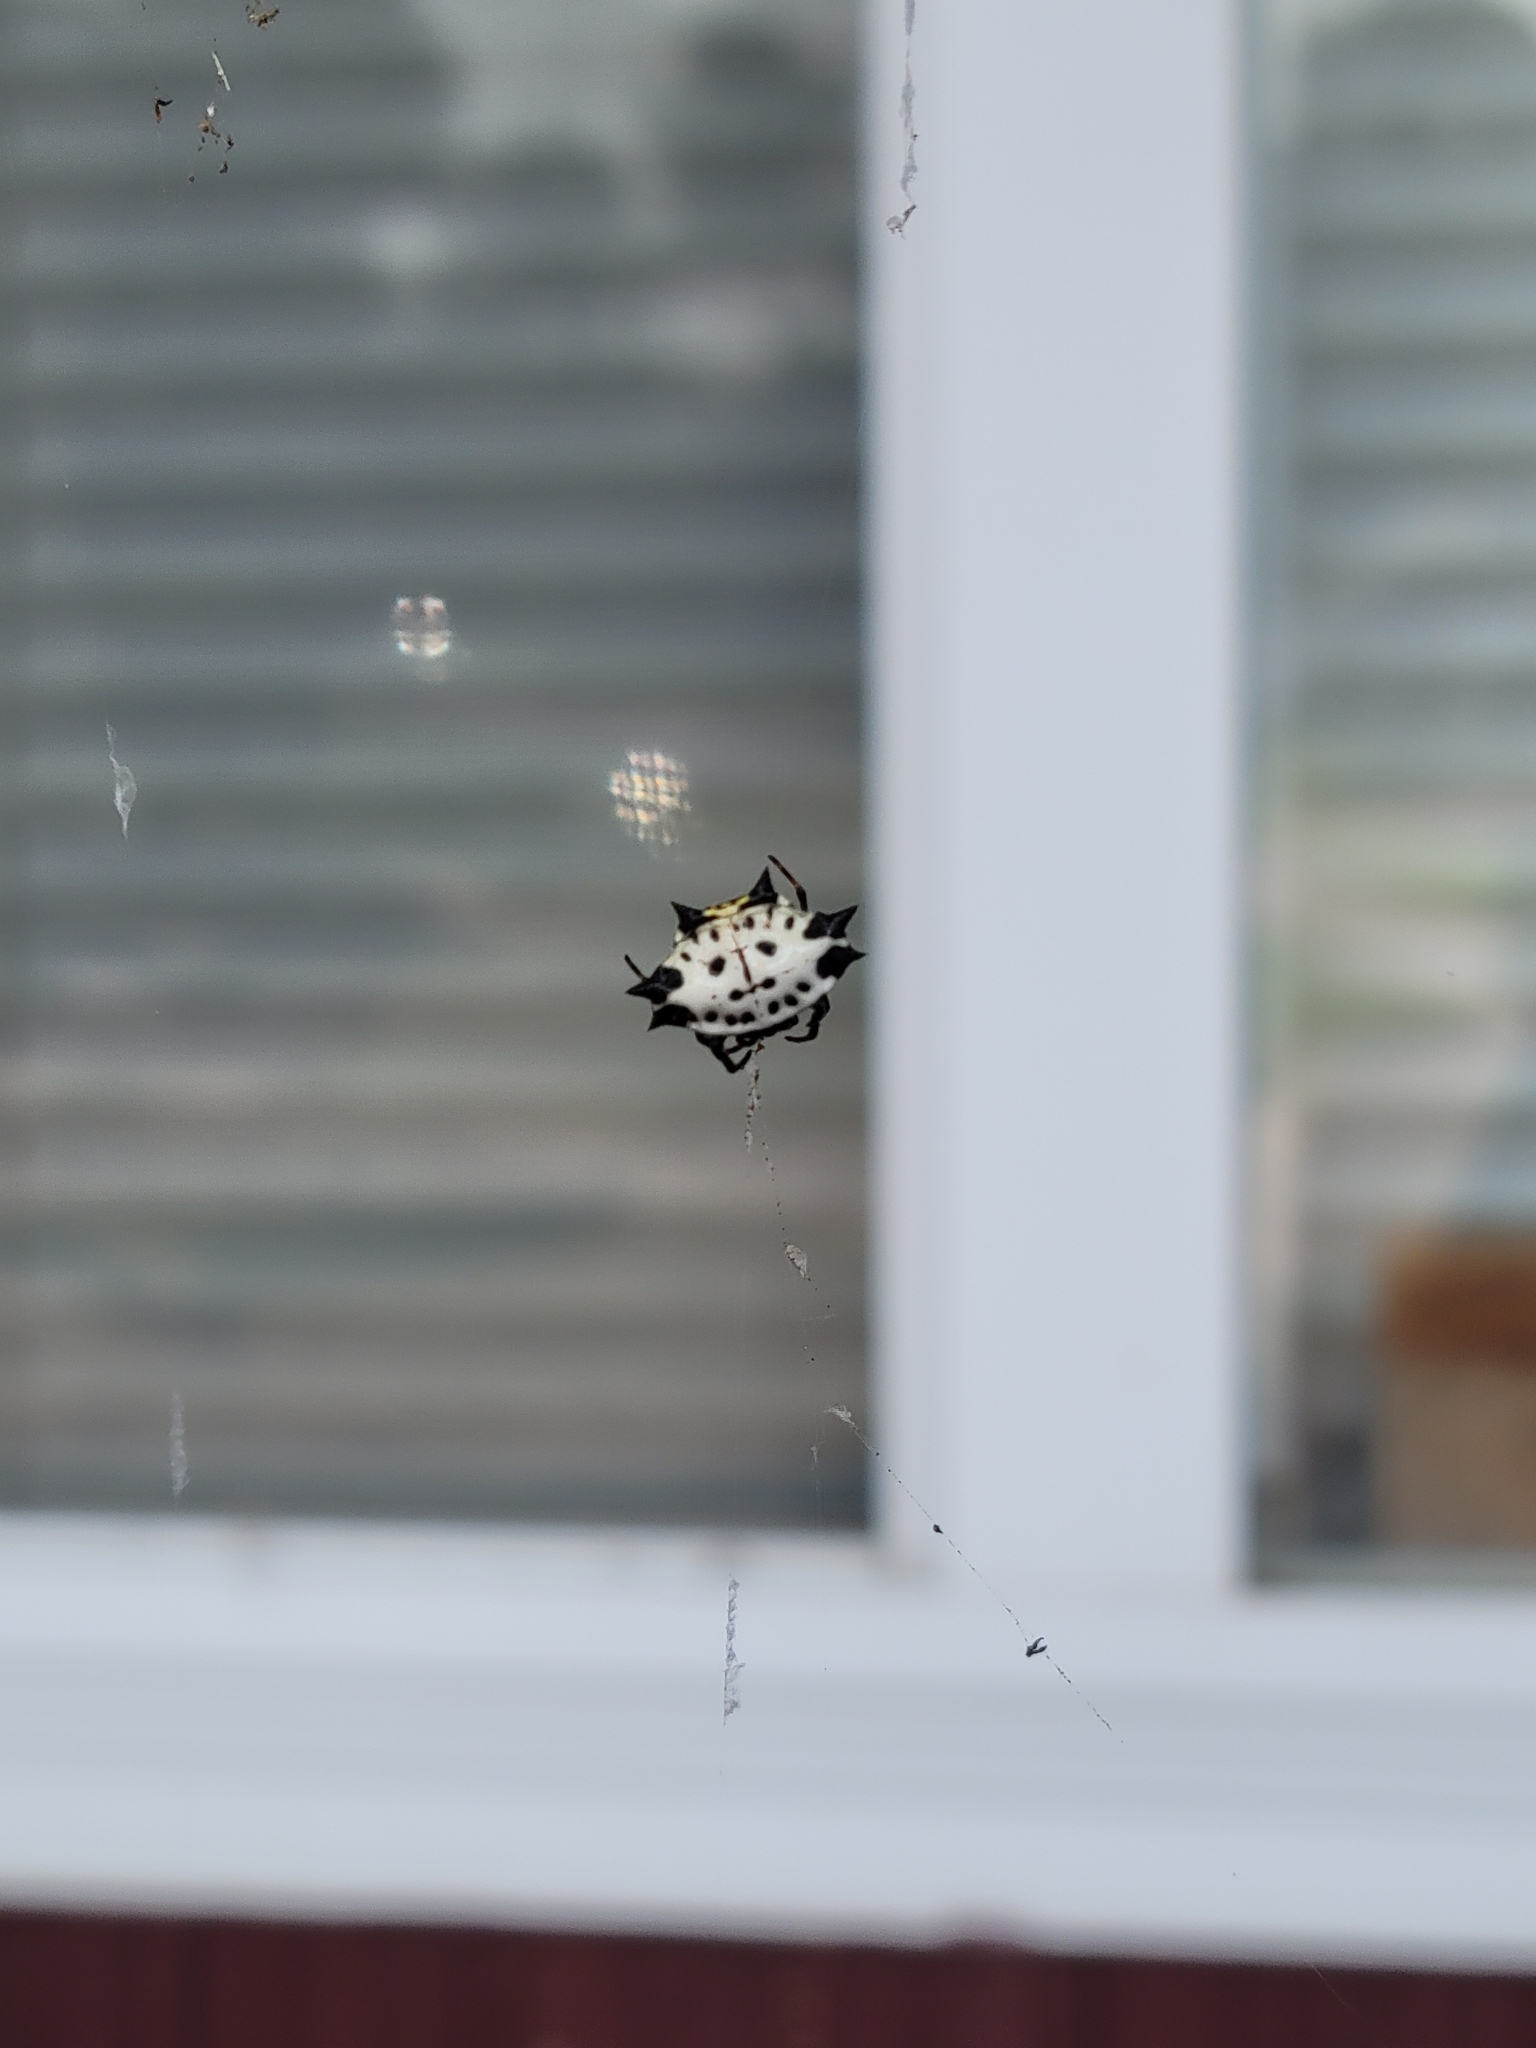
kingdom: Animalia
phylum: Arthropoda
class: Arachnida
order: Araneae
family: Araneidae
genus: Gasteracantha
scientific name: Gasteracantha cancriformis
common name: Orb weavers
